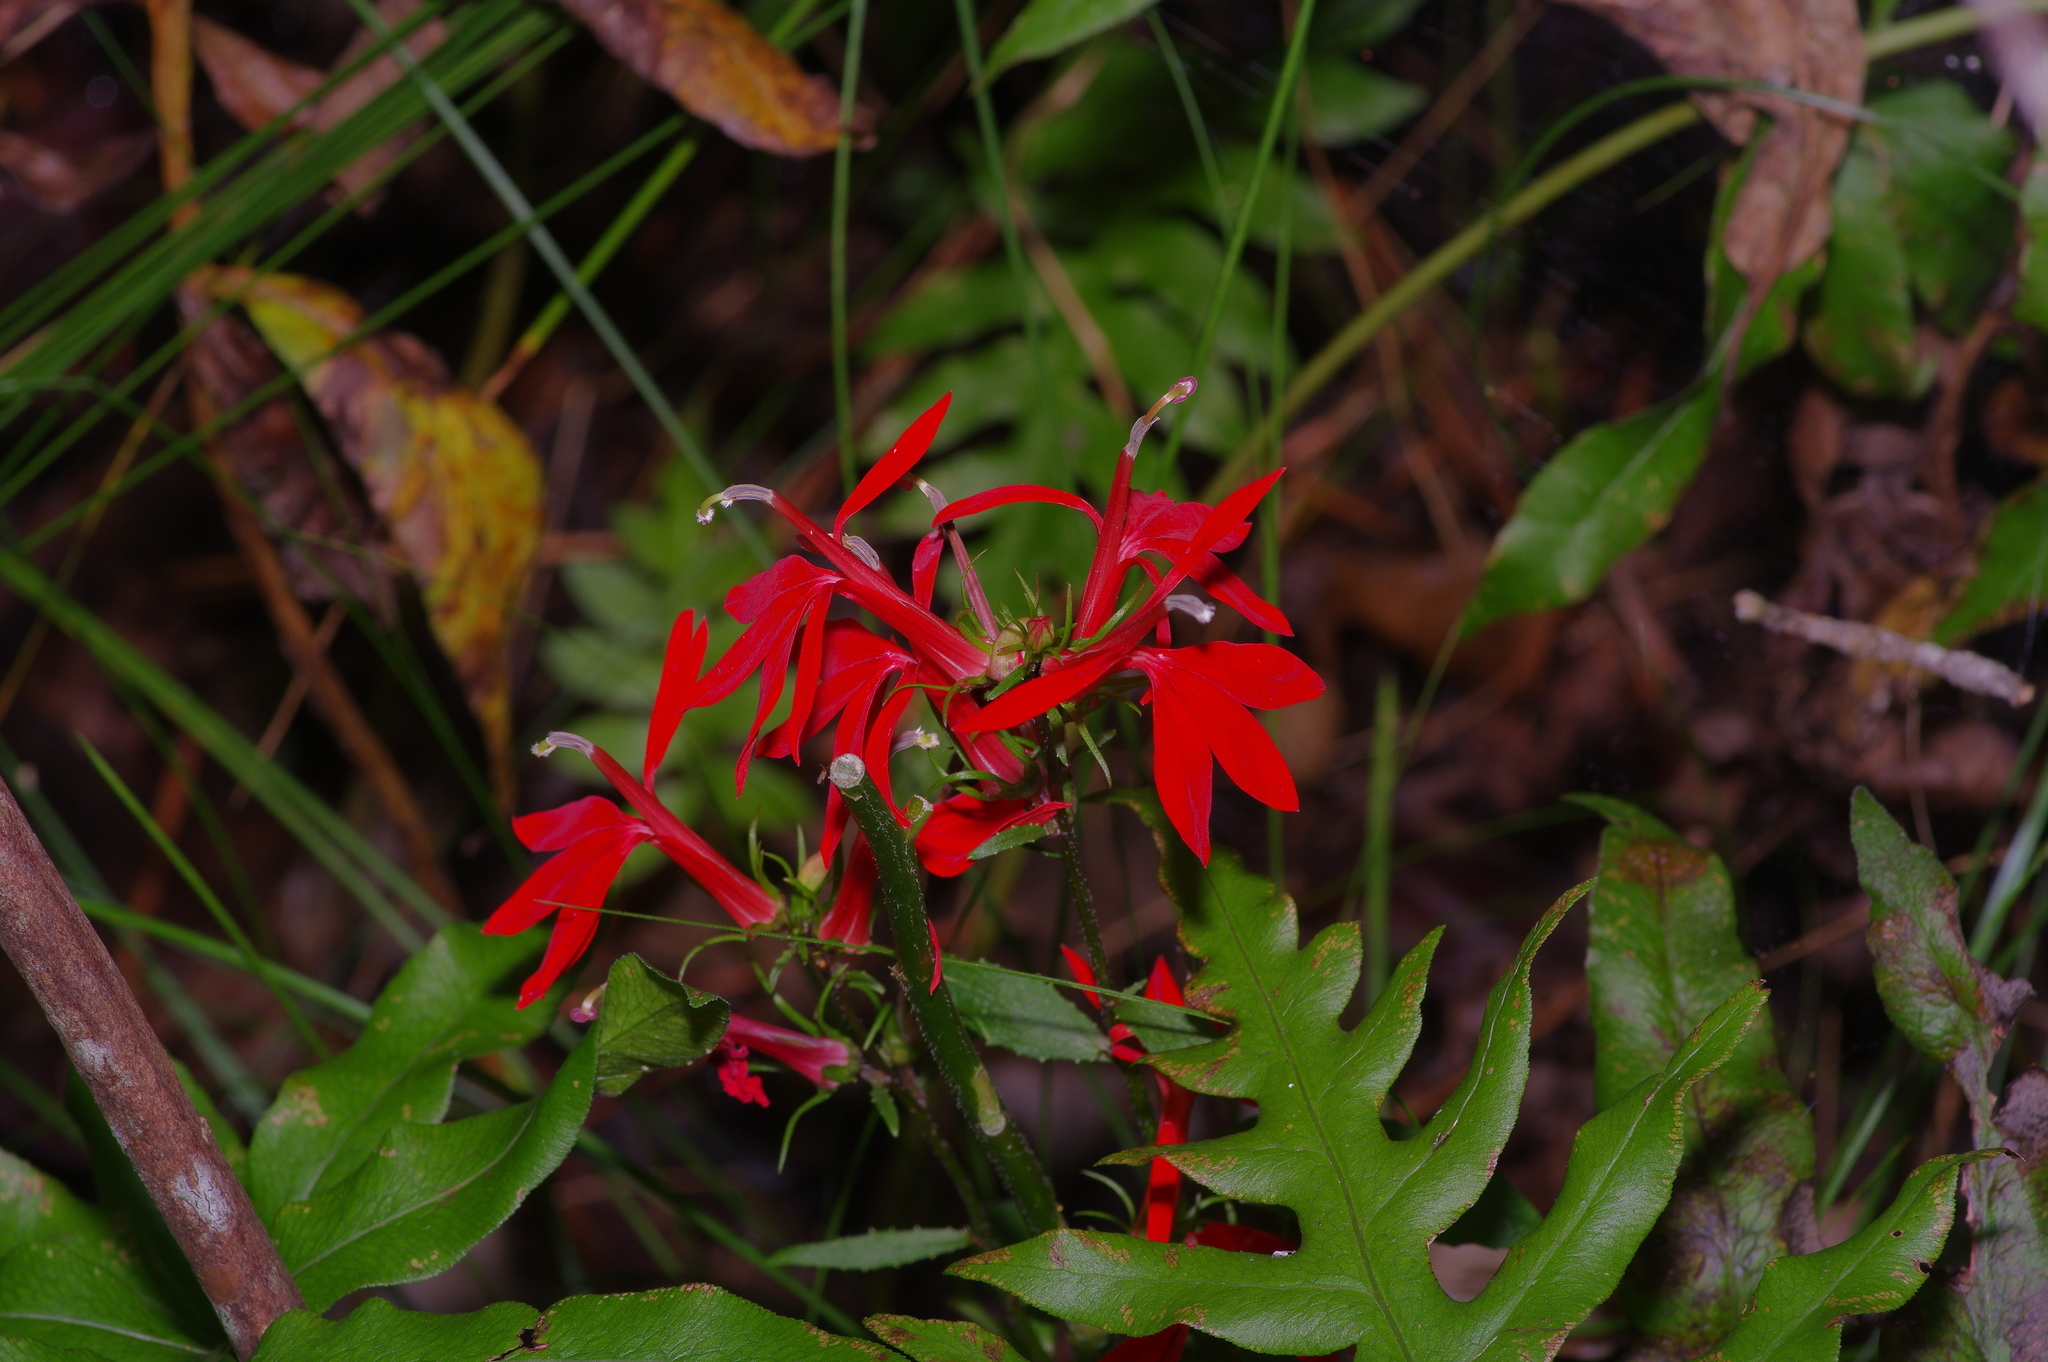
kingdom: Plantae
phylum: Tracheophyta
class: Magnoliopsida
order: Asterales
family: Campanulaceae
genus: Lobelia
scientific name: Lobelia cardinalis
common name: Cardinal flower
